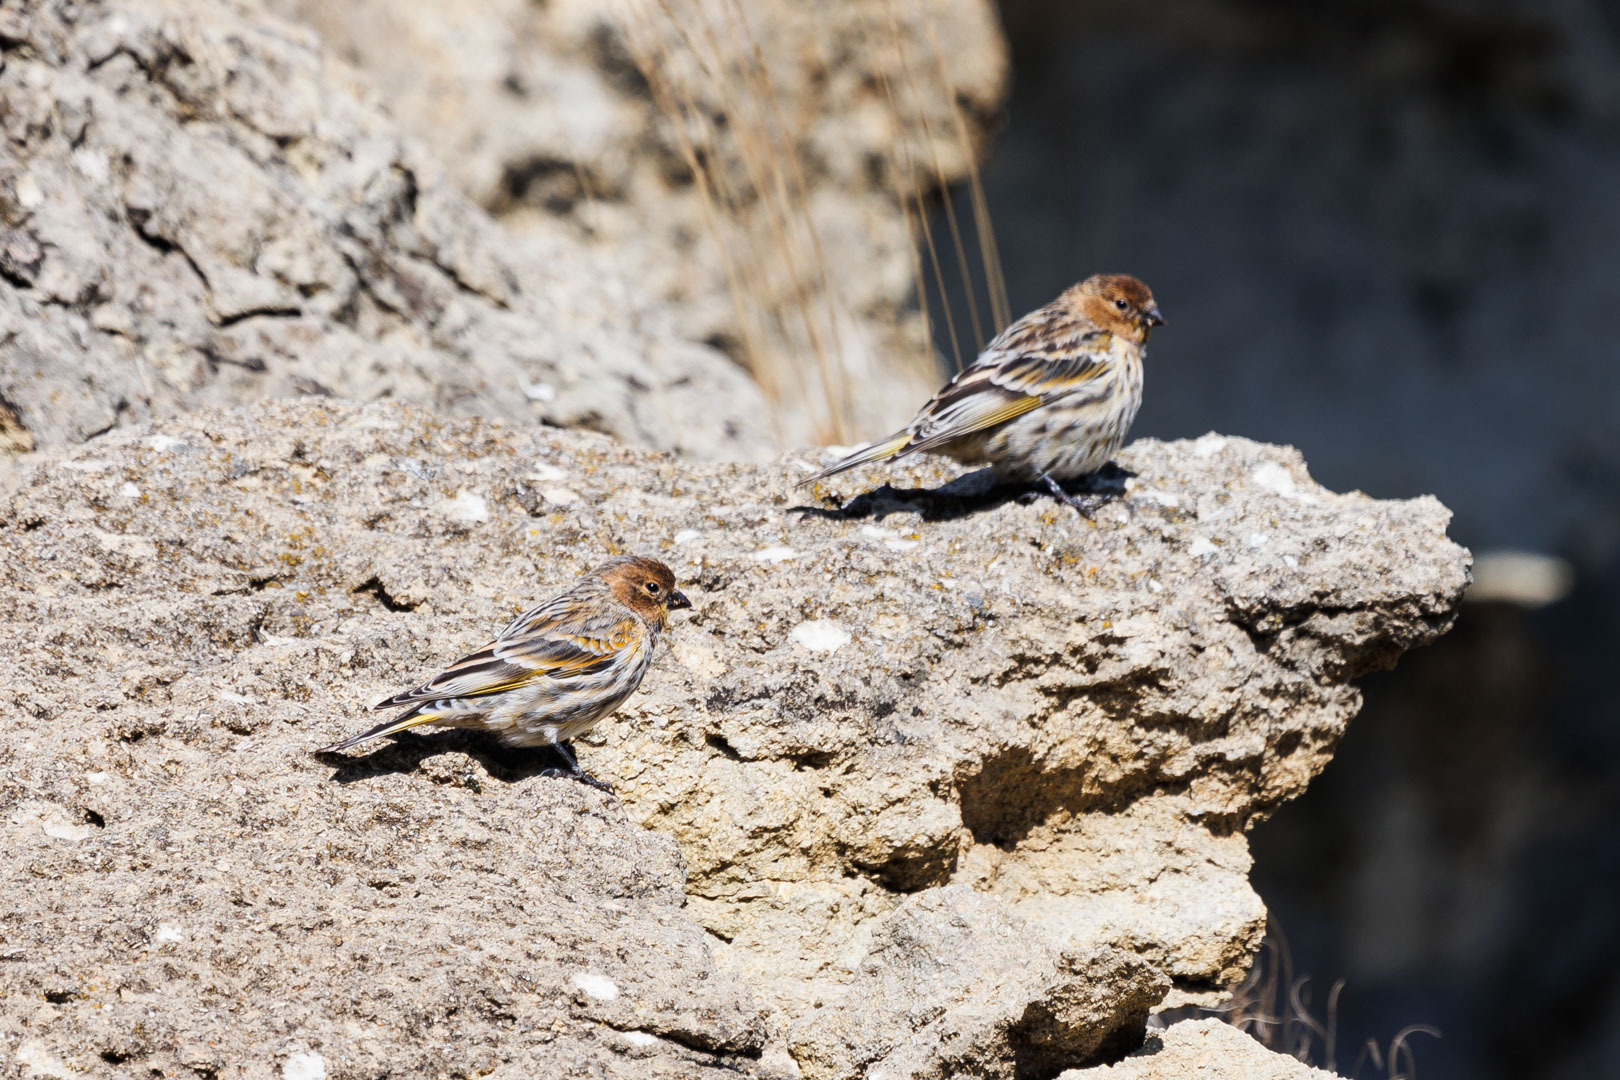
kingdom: Animalia
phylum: Chordata
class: Aves
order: Passeriformes
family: Fringillidae
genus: Serinus
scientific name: Serinus pusillus
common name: Red-fronted serin
